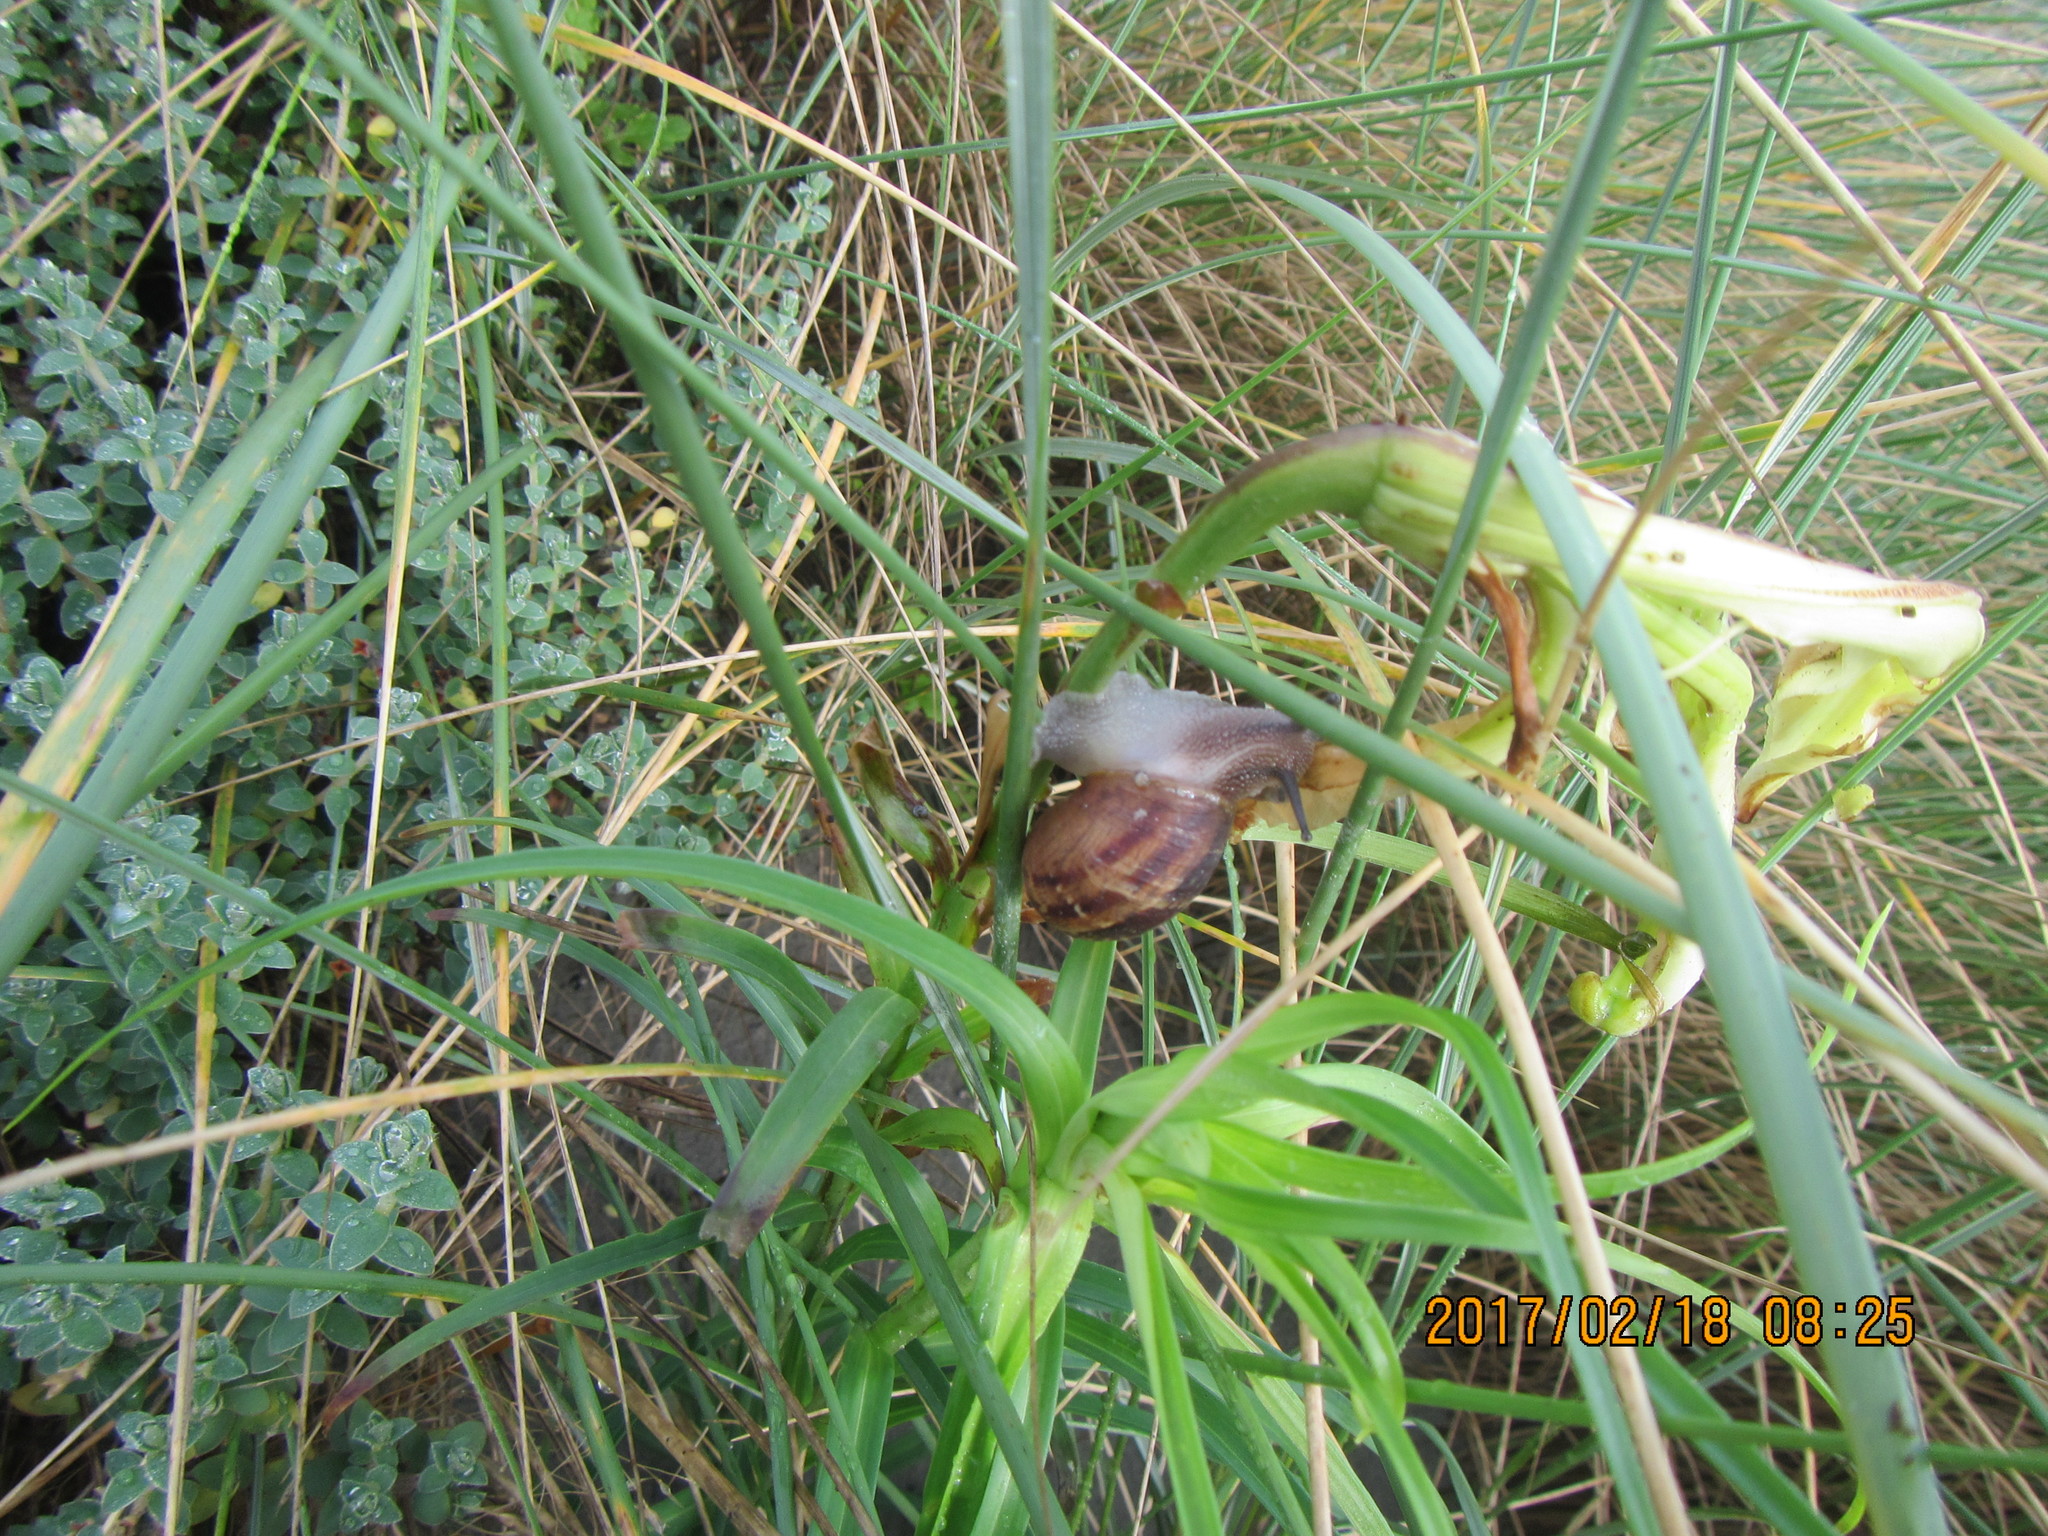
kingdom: Animalia
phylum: Mollusca
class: Gastropoda
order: Stylommatophora
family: Helicidae
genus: Cornu
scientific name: Cornu aspersum
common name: Brown garden snail
